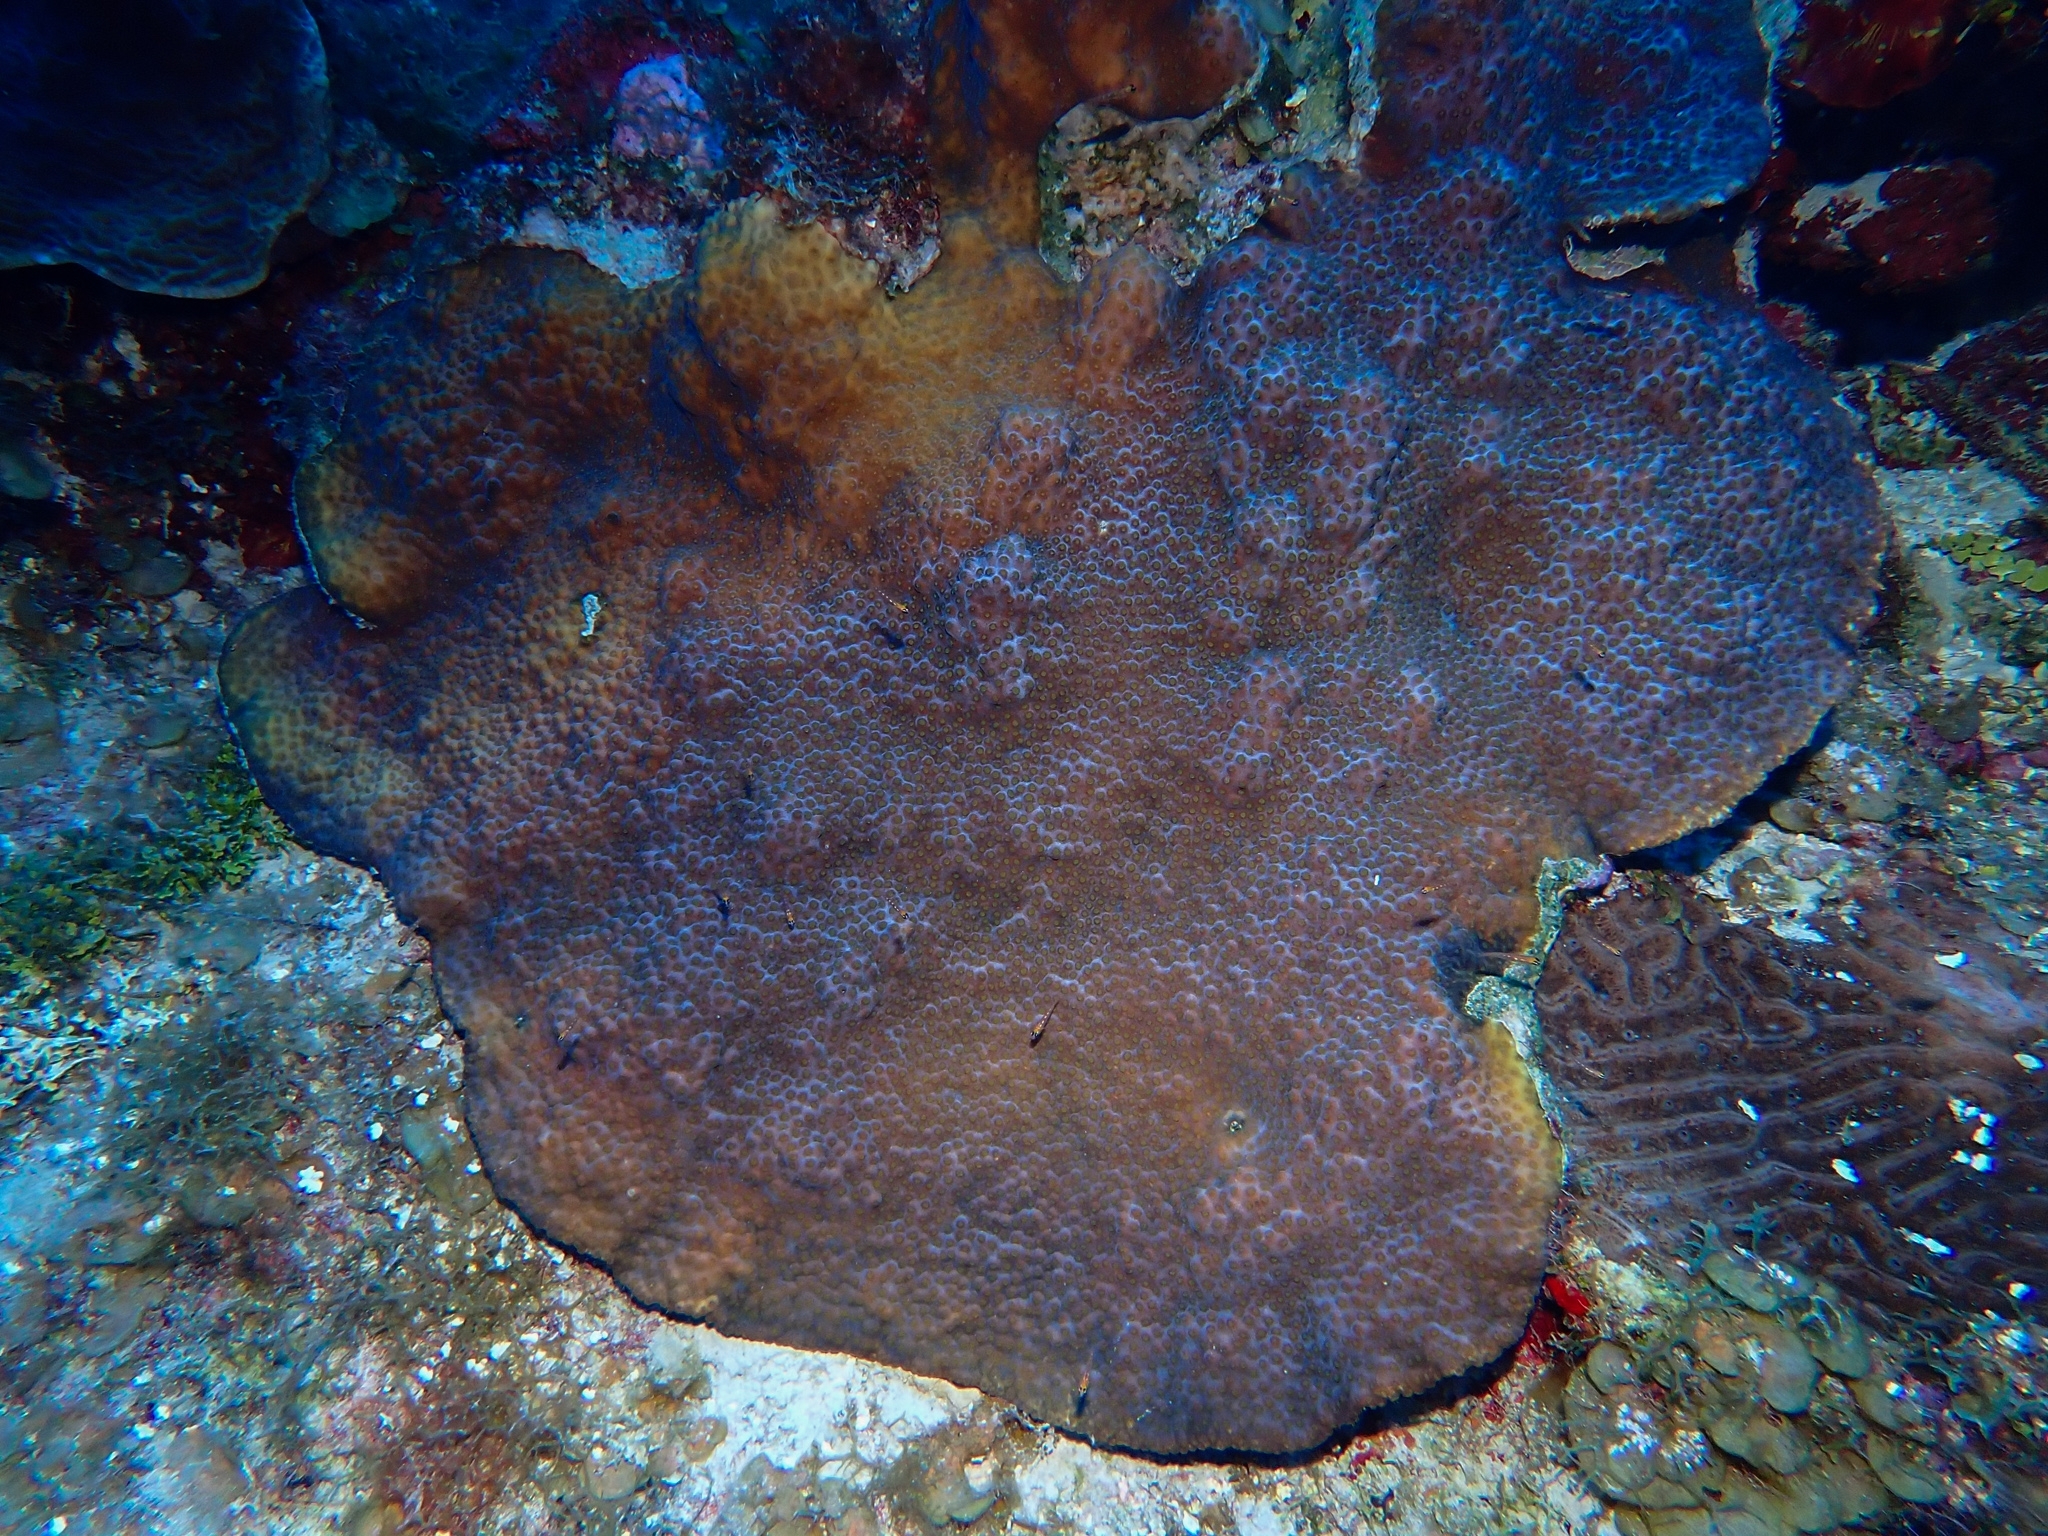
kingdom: Animalia
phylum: Cnidaria
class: Anthozoa
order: Scleractinia
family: Merulinidae
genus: Orbicella
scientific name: Orbicella faveolata
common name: Mountainous star coral
